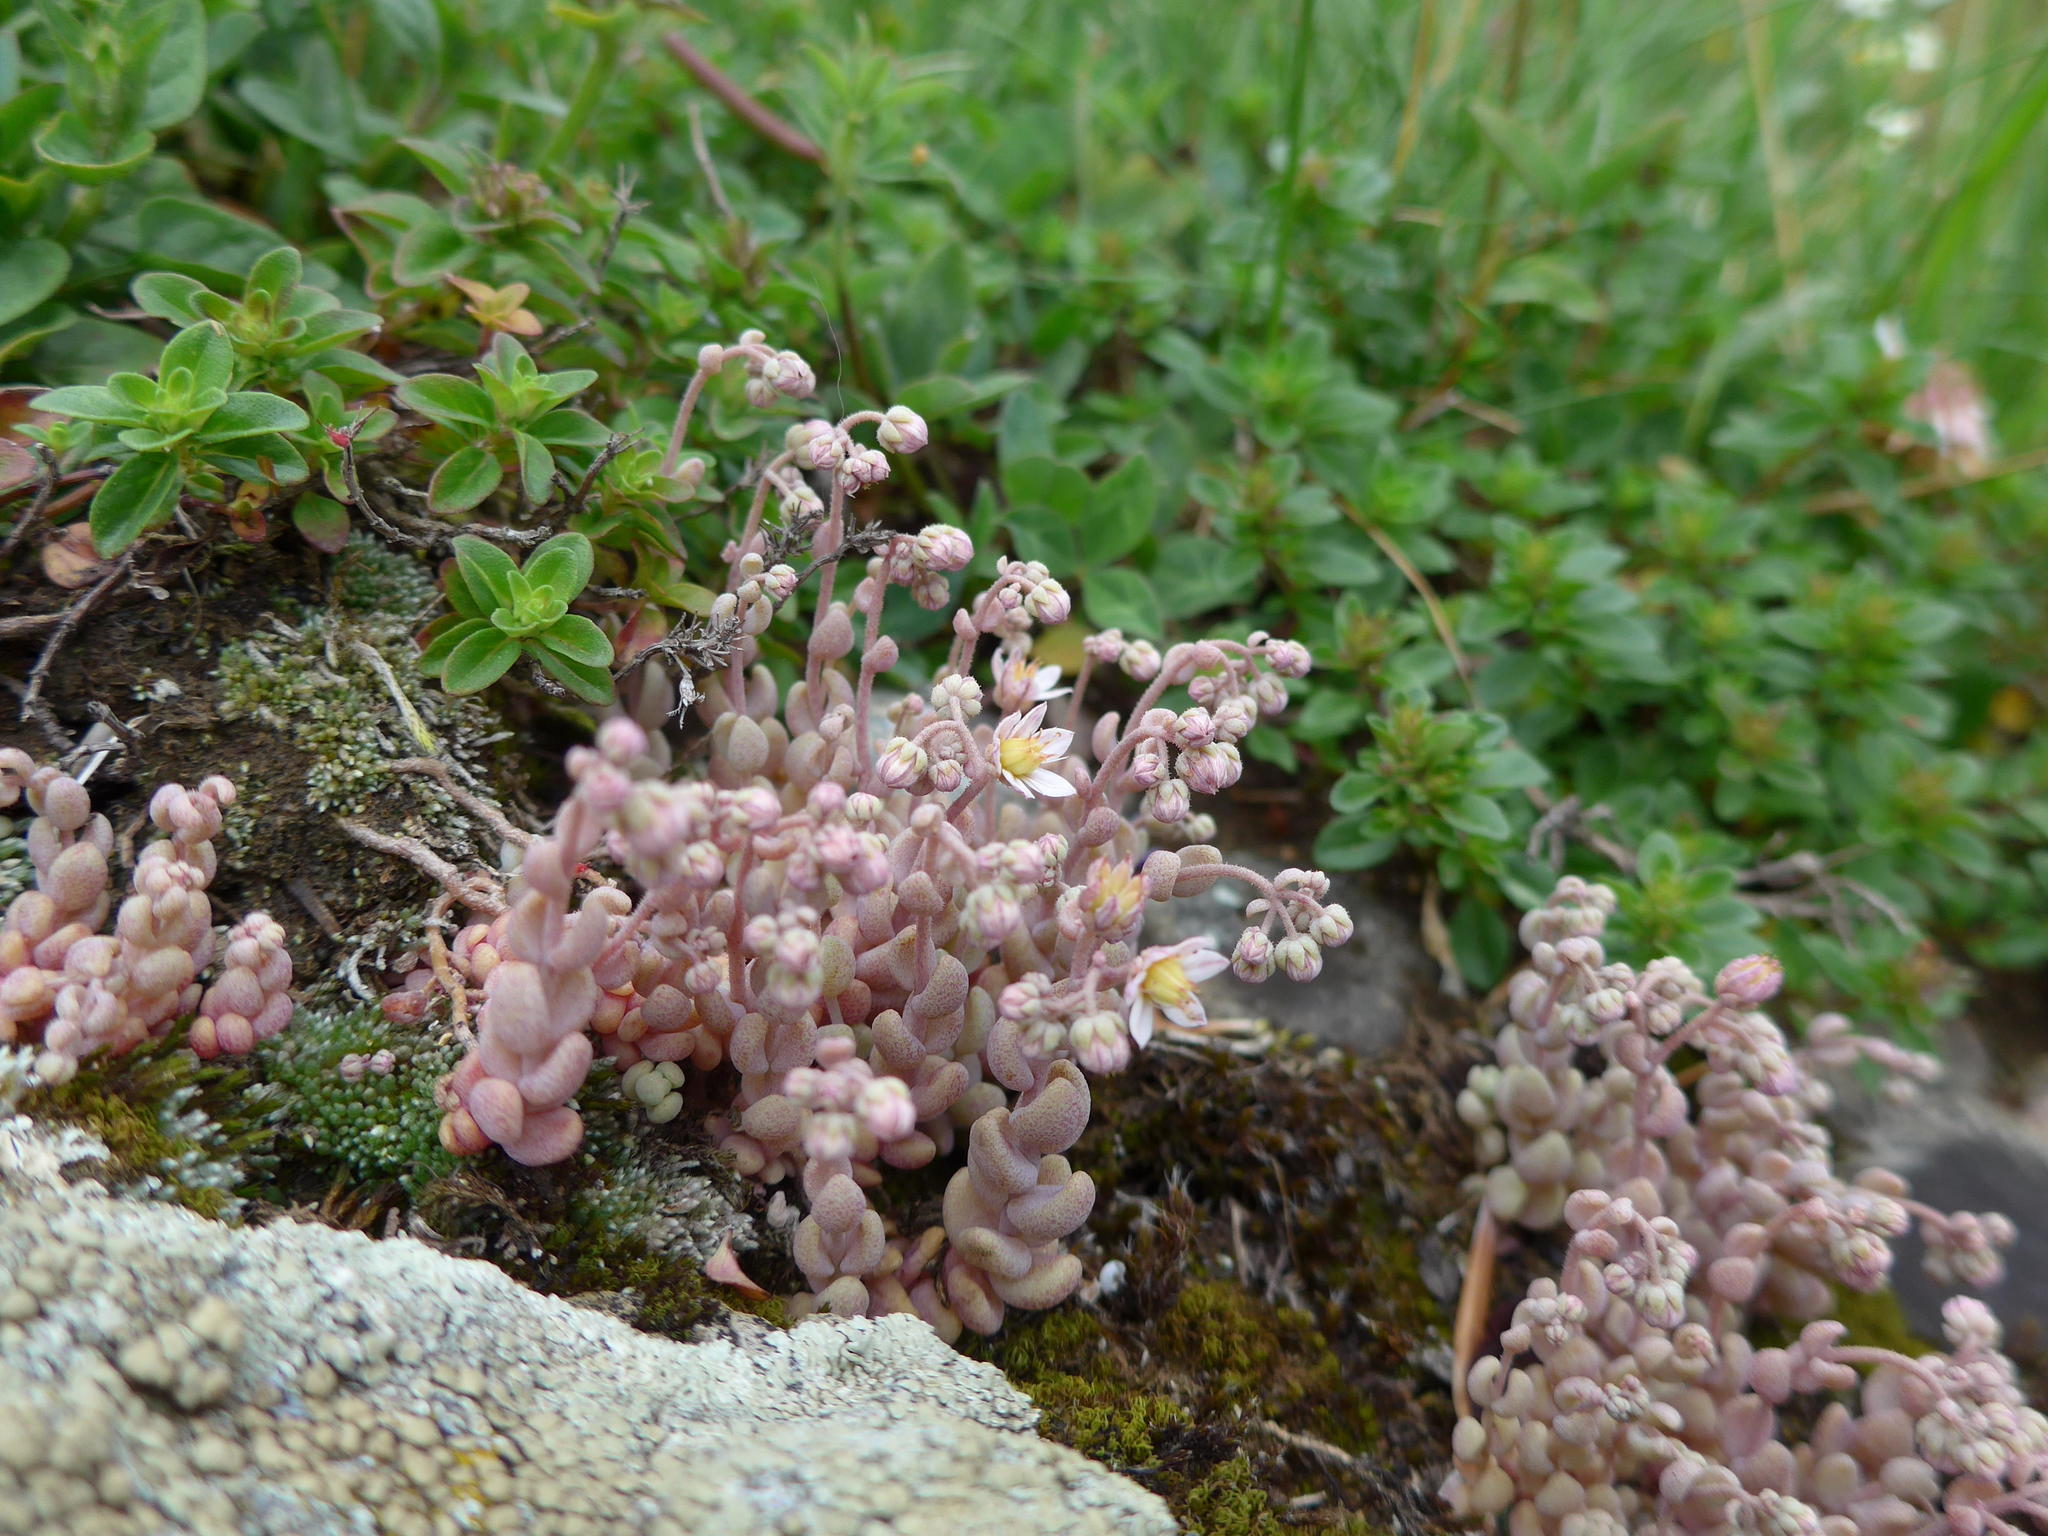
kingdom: Plantae
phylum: Tracheophyta
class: Magnoliopsida
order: Saxifragales
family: Crassulaceae
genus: Sedum
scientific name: Sedum dasyphyllum
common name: Thick-leaf stonecrop
